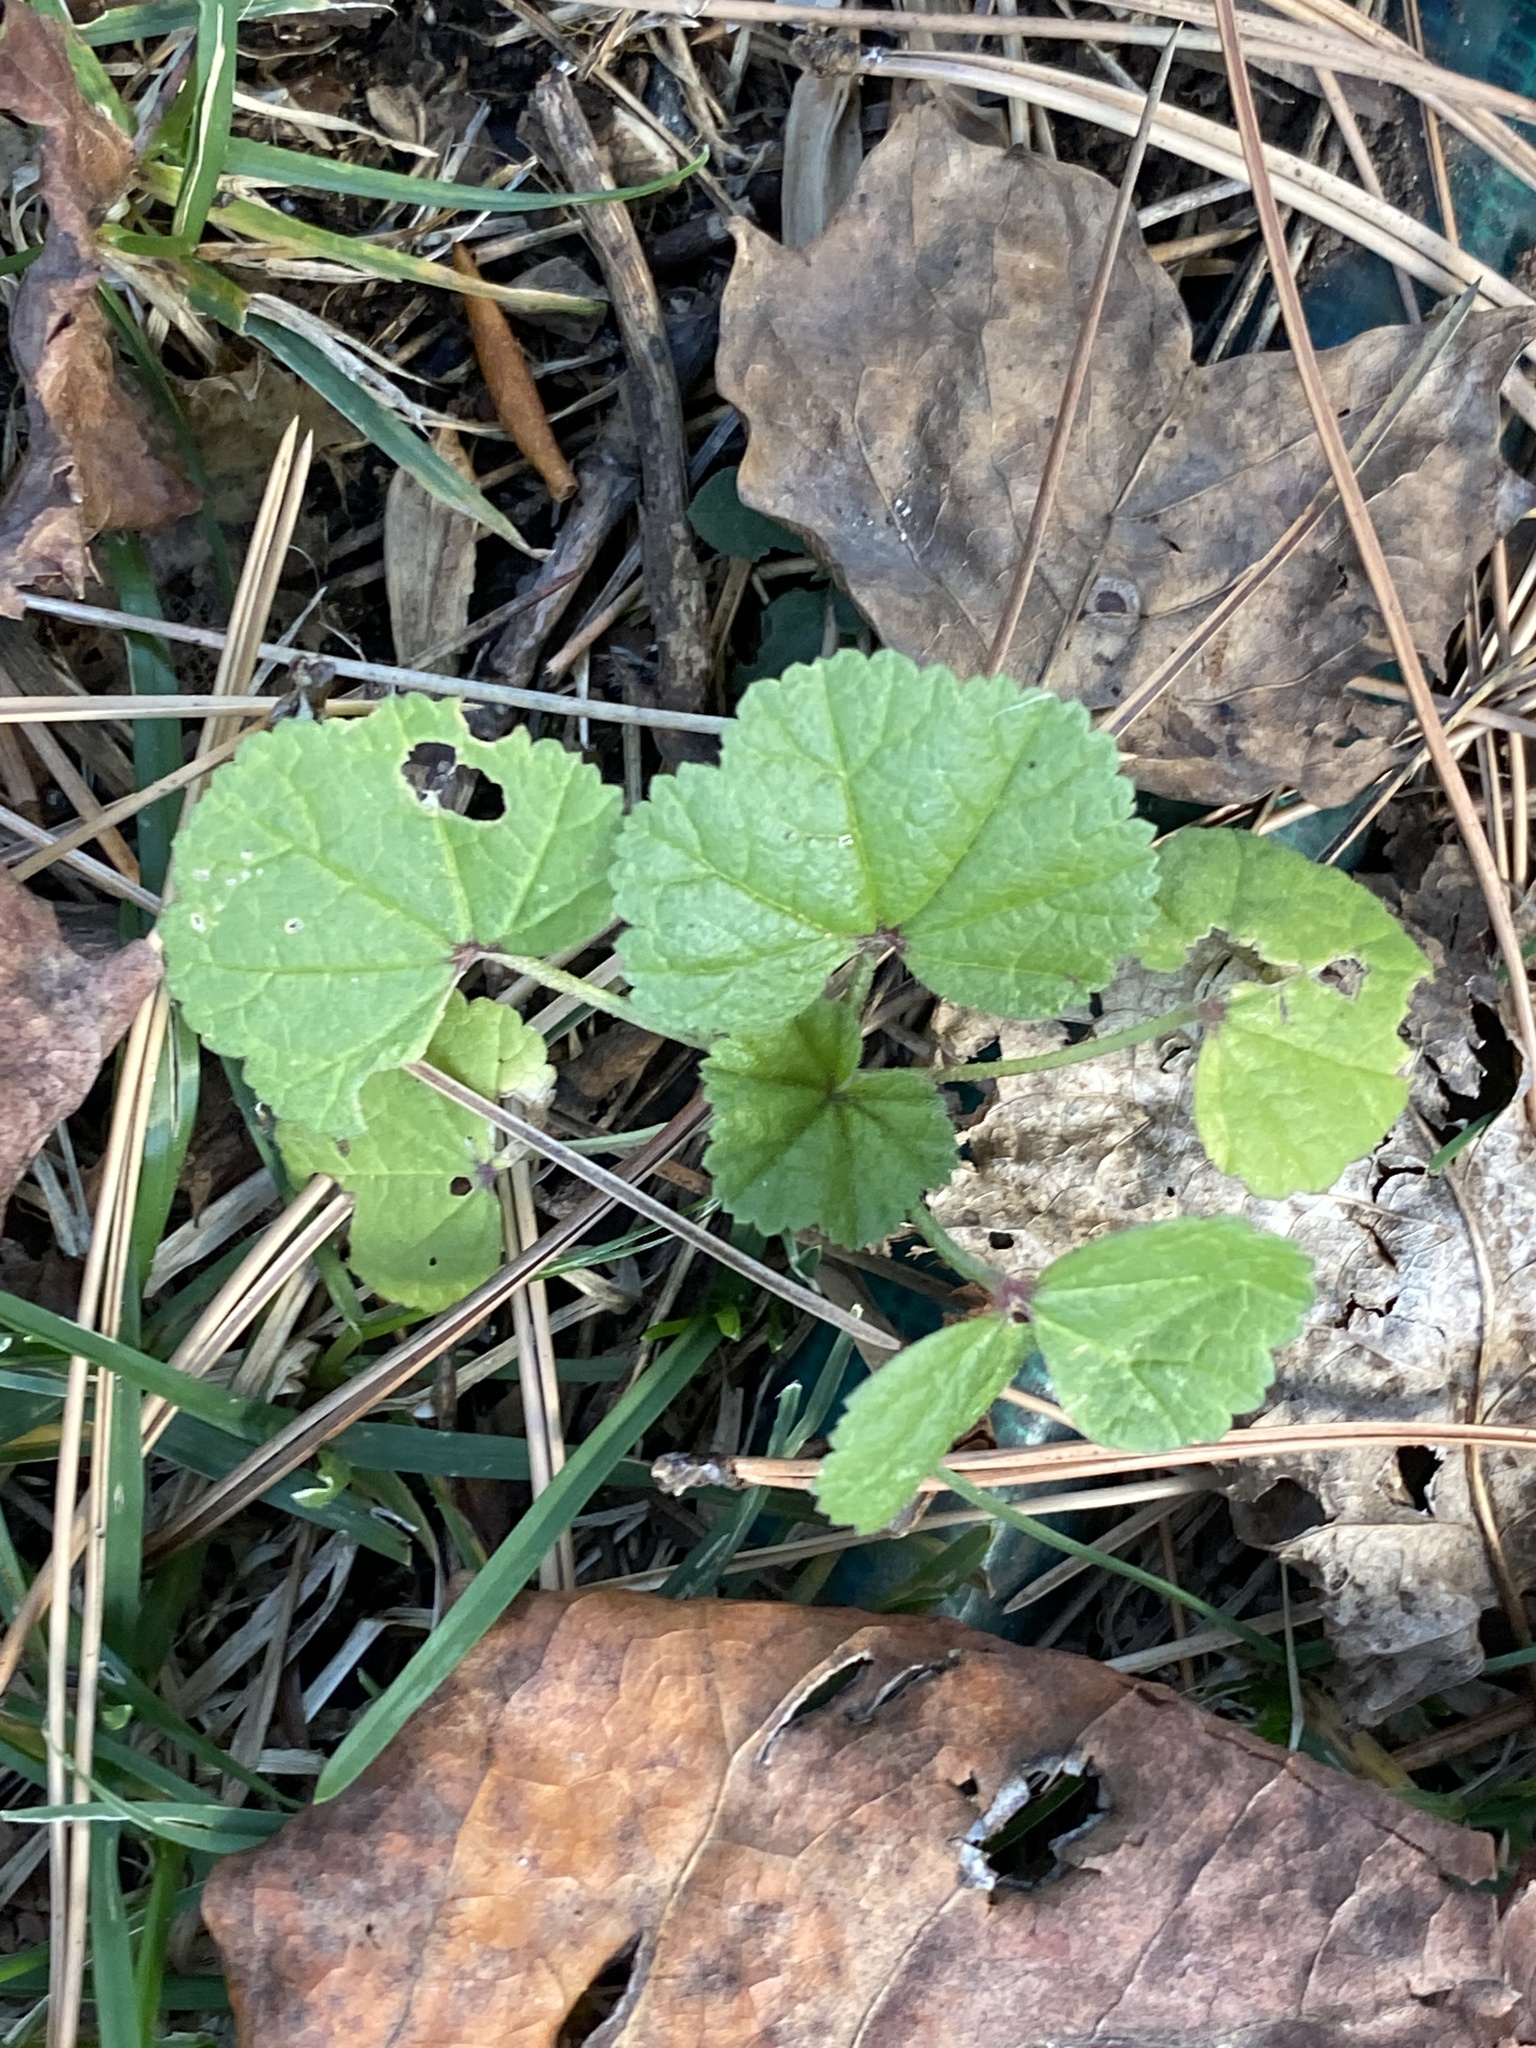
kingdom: Plantae
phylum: Tracheophyta
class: Magnoliopsida
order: Malvales
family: Malvaceae
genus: Malva
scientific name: Malva neglecta
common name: Common mallow
